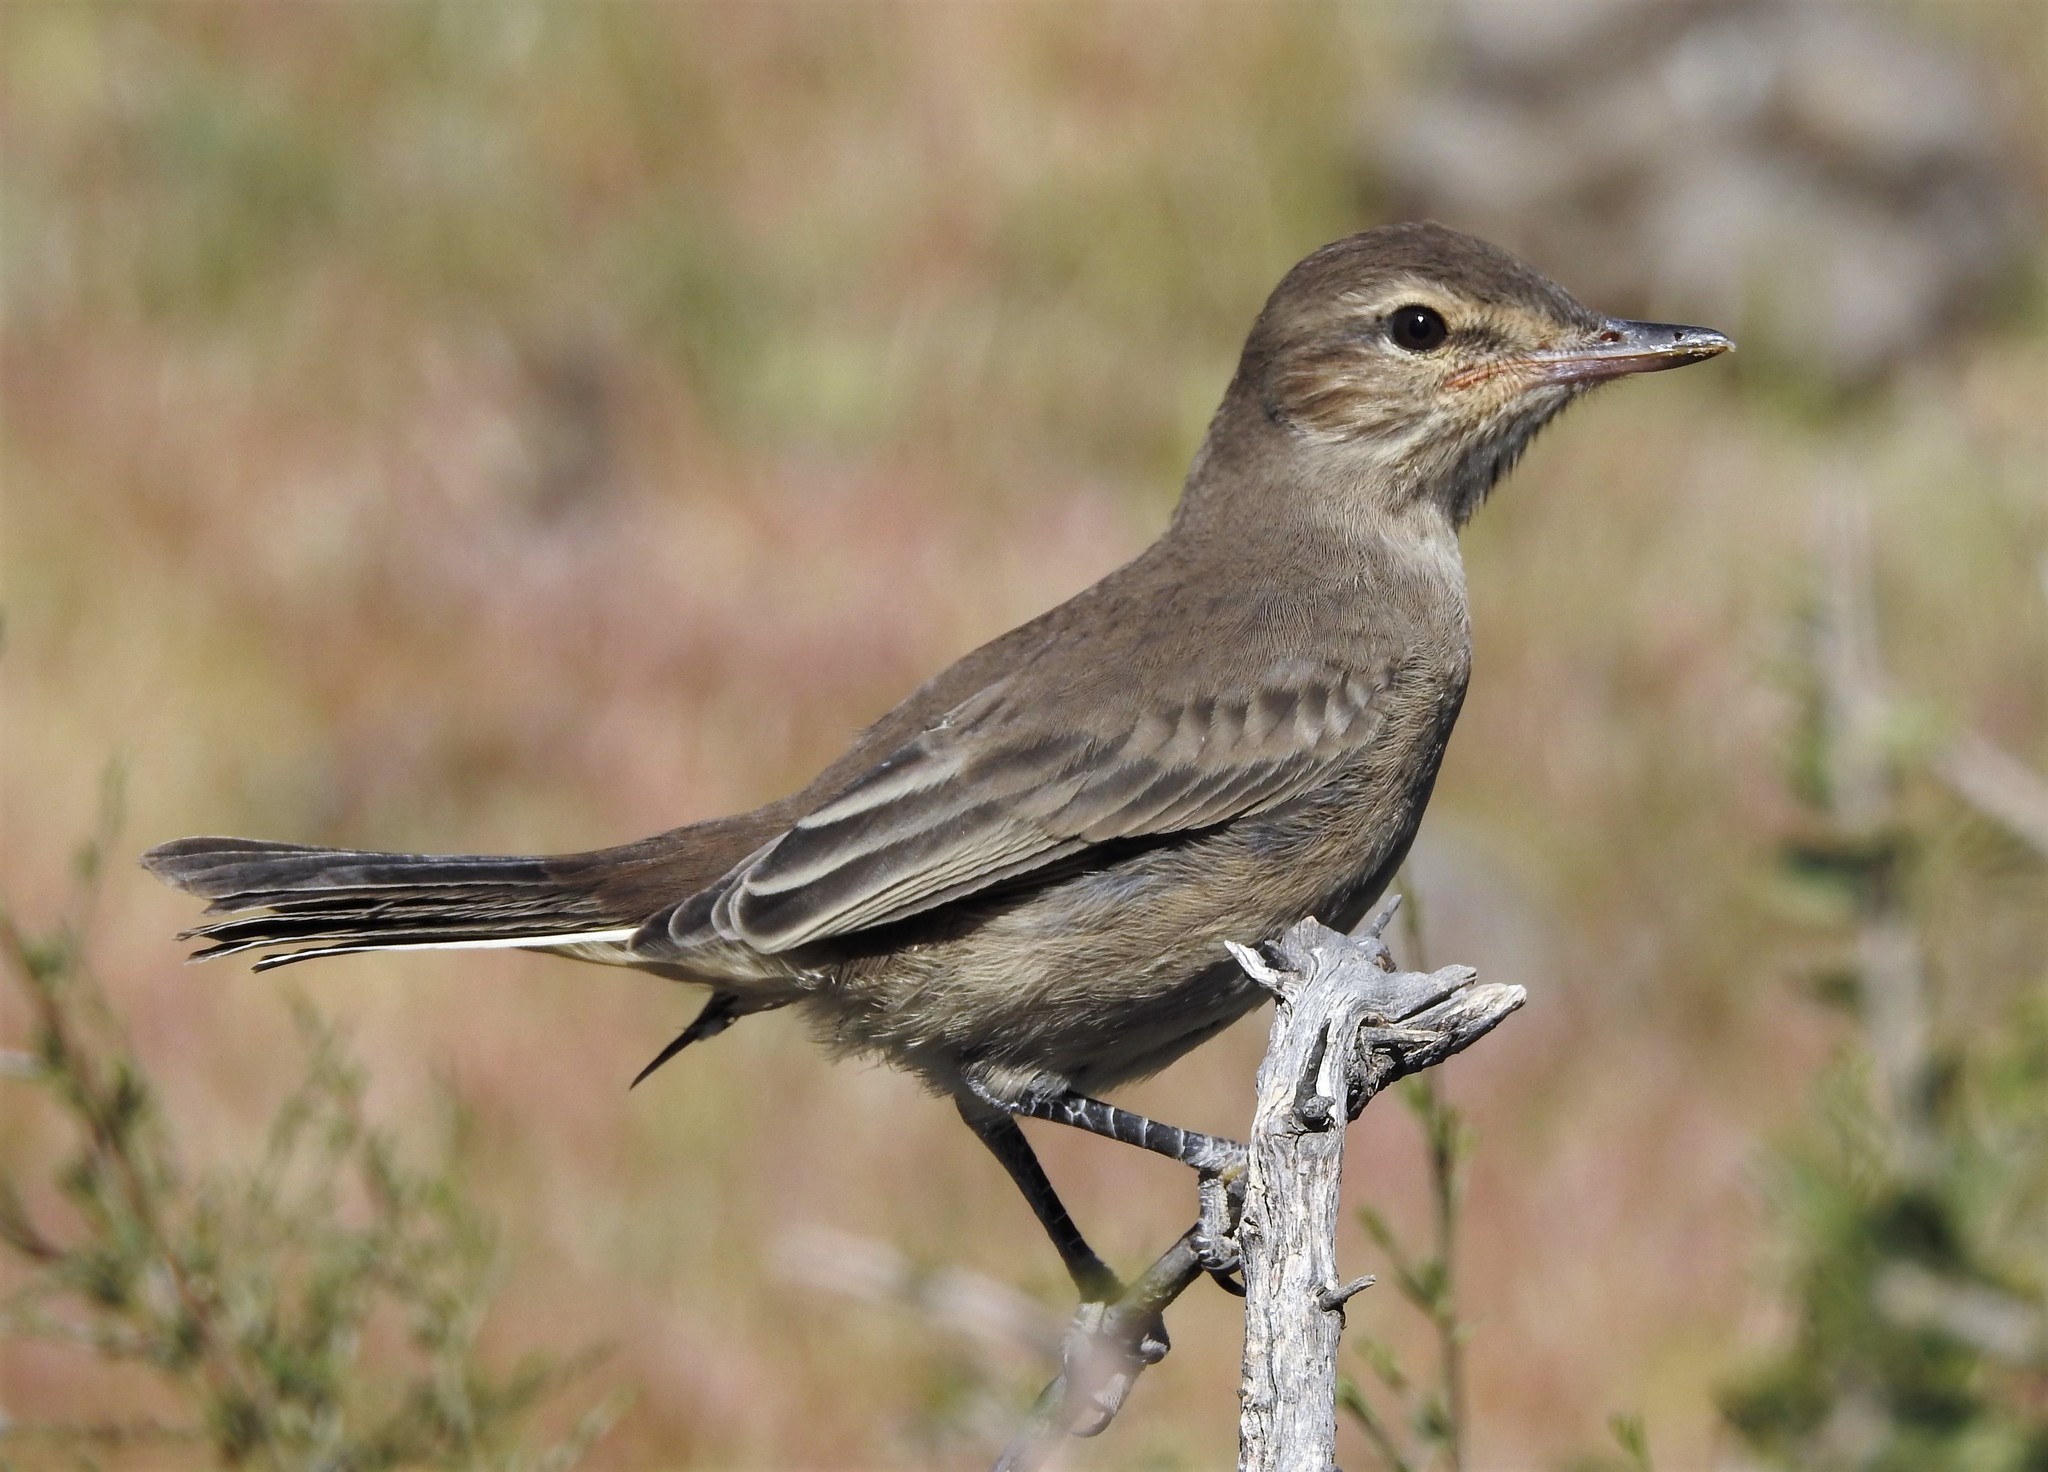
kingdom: Animalia
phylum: Chordata
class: Aves
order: Passeriformes
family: Tyrannidae
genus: Agriornis
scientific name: Agriornis micropterus
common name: Grey-bellied shrike-tyrant
